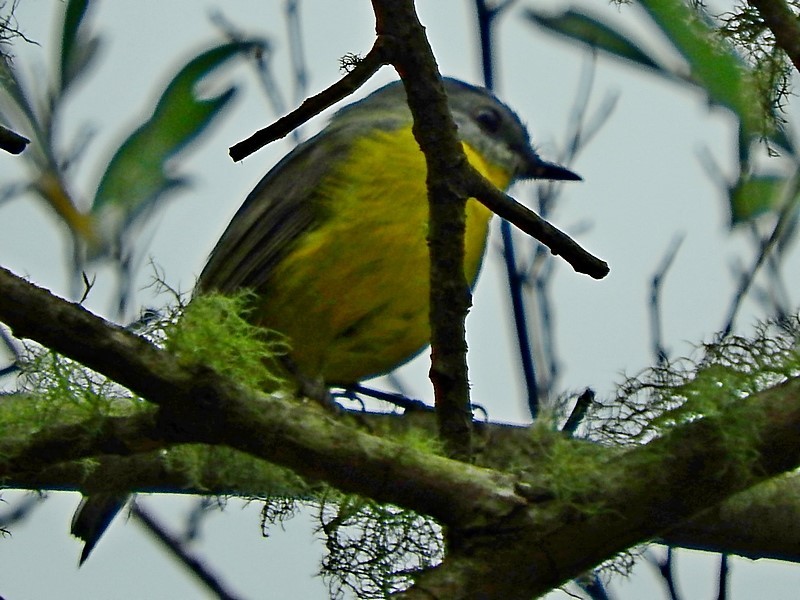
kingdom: Animalia
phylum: Chordata
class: Aves
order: Passeriformes
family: Petroicidae
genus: Eopsaltria
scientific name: Eopsaltria australis
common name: Eastern yellow robin
